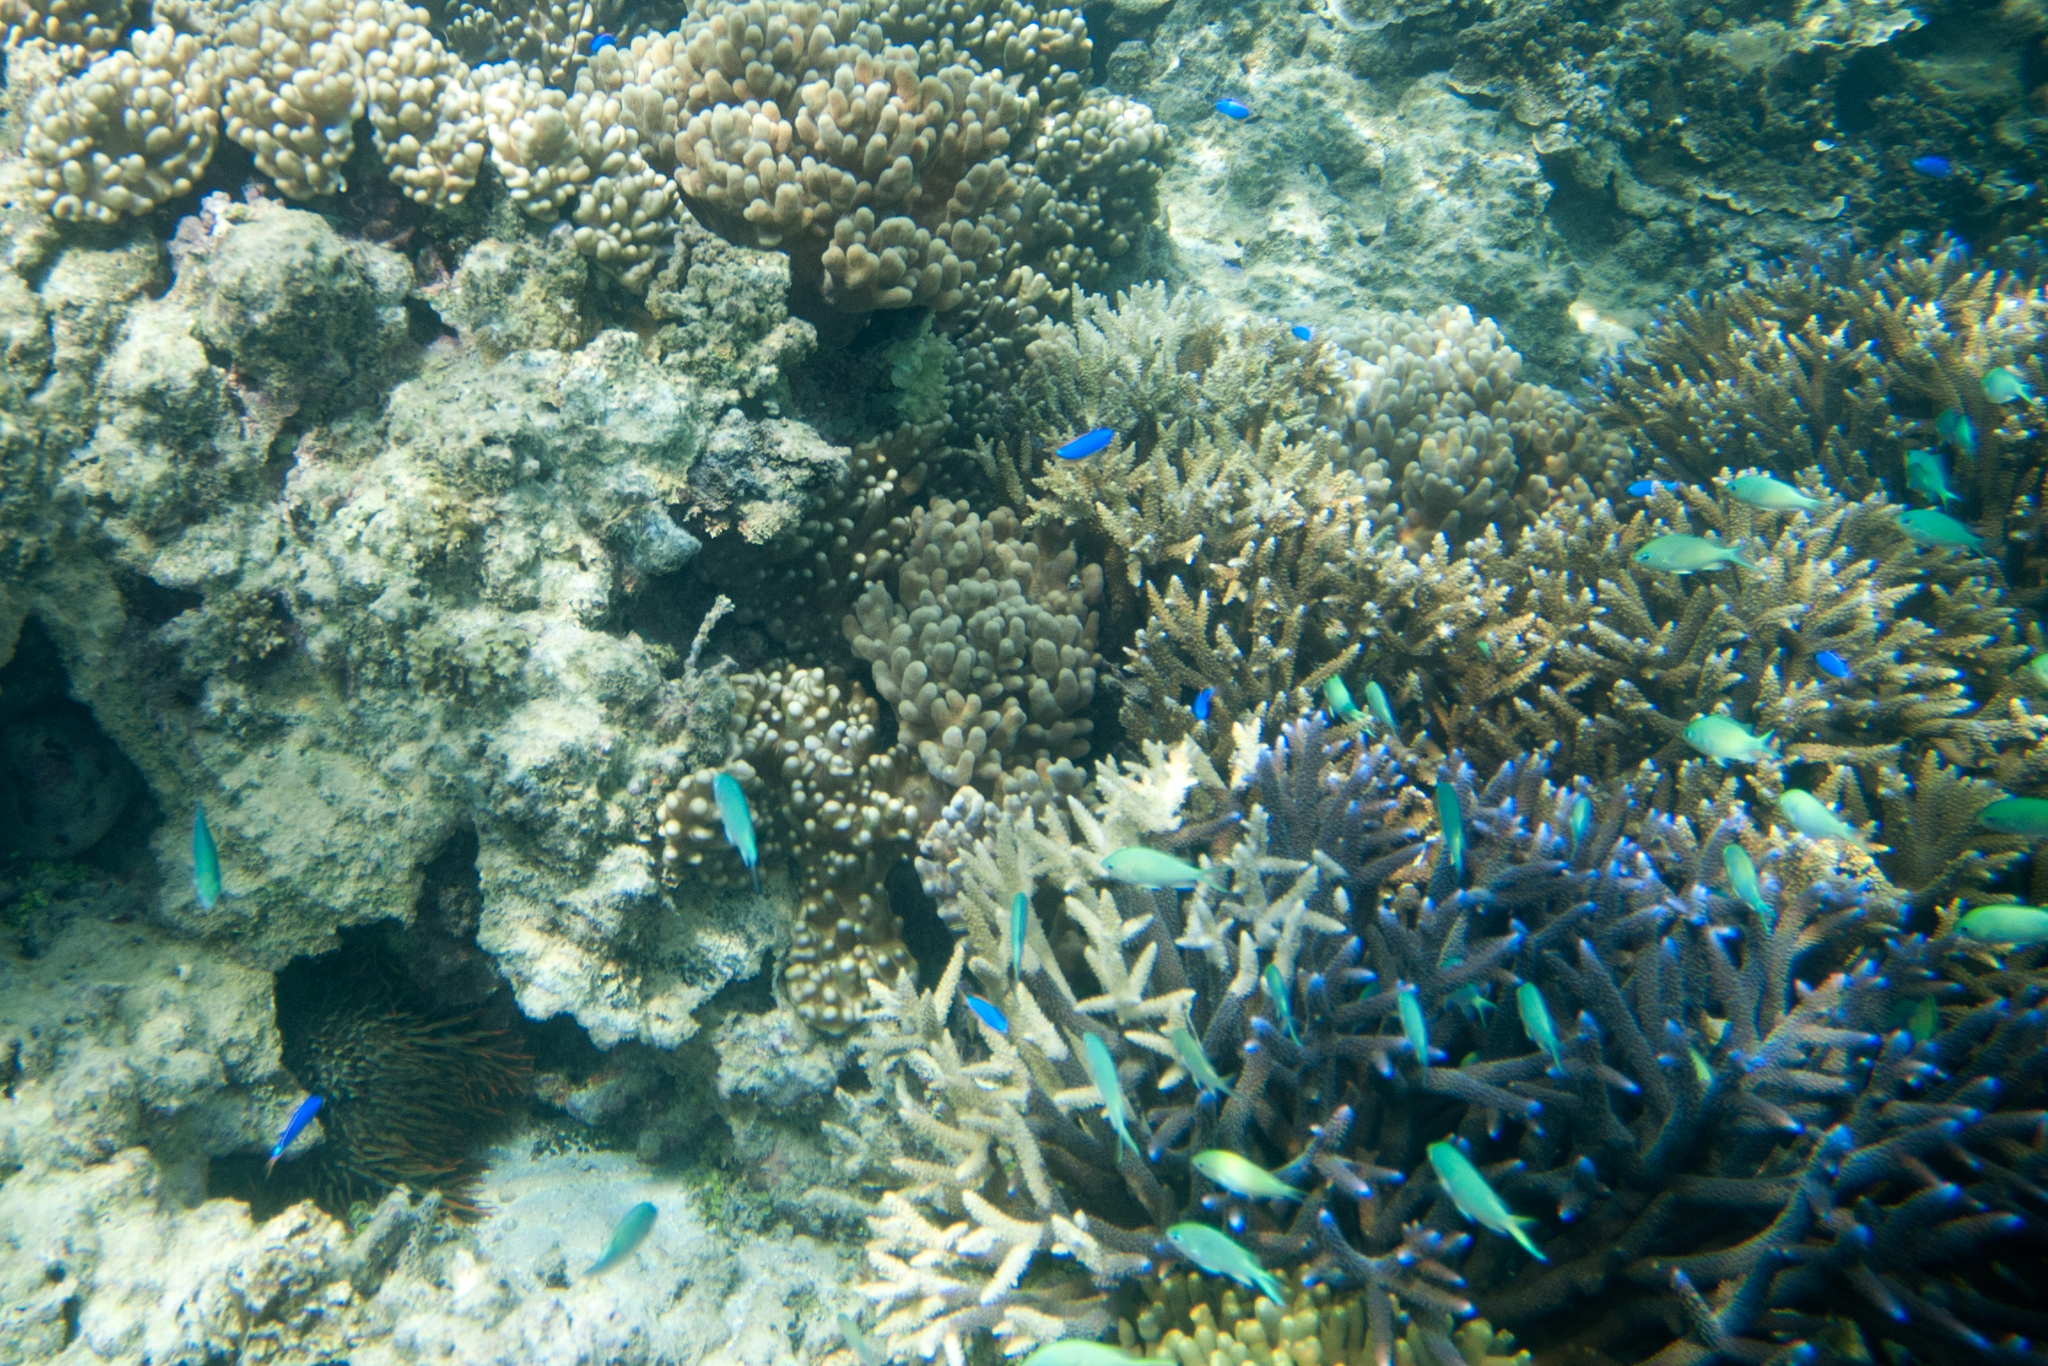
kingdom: Animalia
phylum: Echinodermata
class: Asteroidea
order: Valvatida
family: Acanthasteridae
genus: Acanthaster
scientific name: Acanthaster planci
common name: Crown-of-thorns
